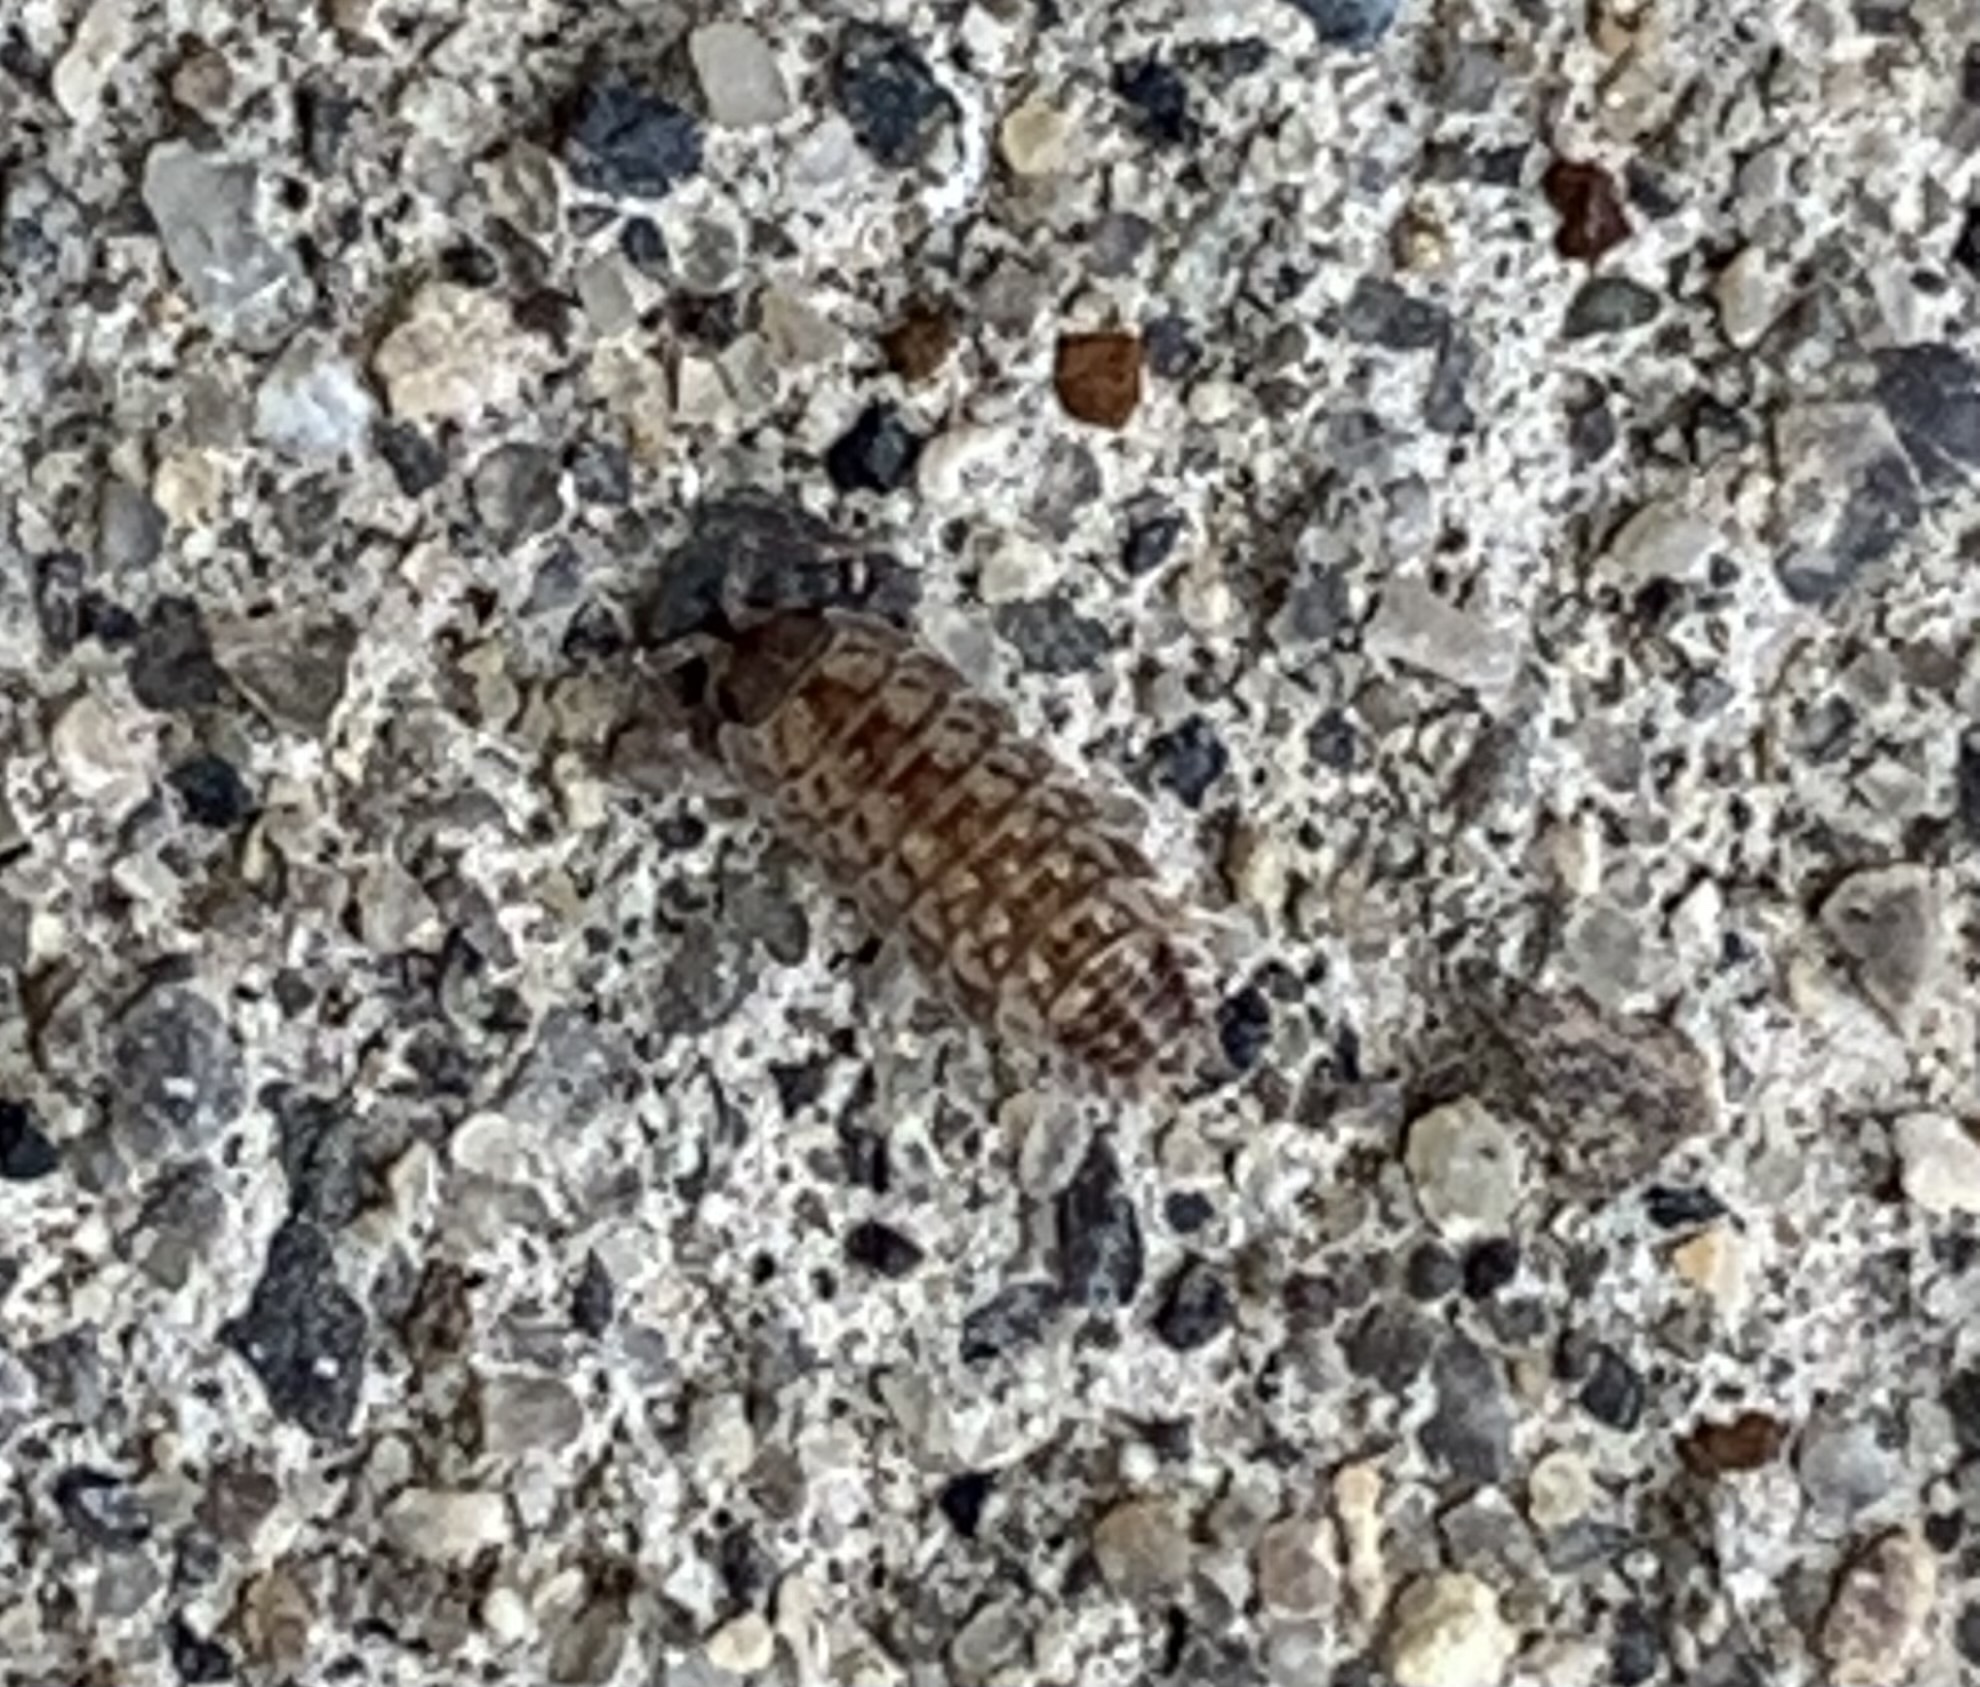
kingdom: Animalia
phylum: Arthropoda
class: Malacostraca
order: Isopoda
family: Porcellionidae
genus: Porcellio
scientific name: Porcellio spinicornis
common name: Painted woodlouse
